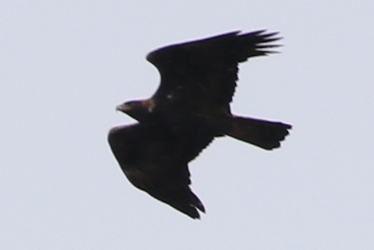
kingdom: Animalia
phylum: Chordata
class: Aves
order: Accipitriformes
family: Accipitridae
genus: Aquila
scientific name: Aquila chrysaetos
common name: Golden eagle
